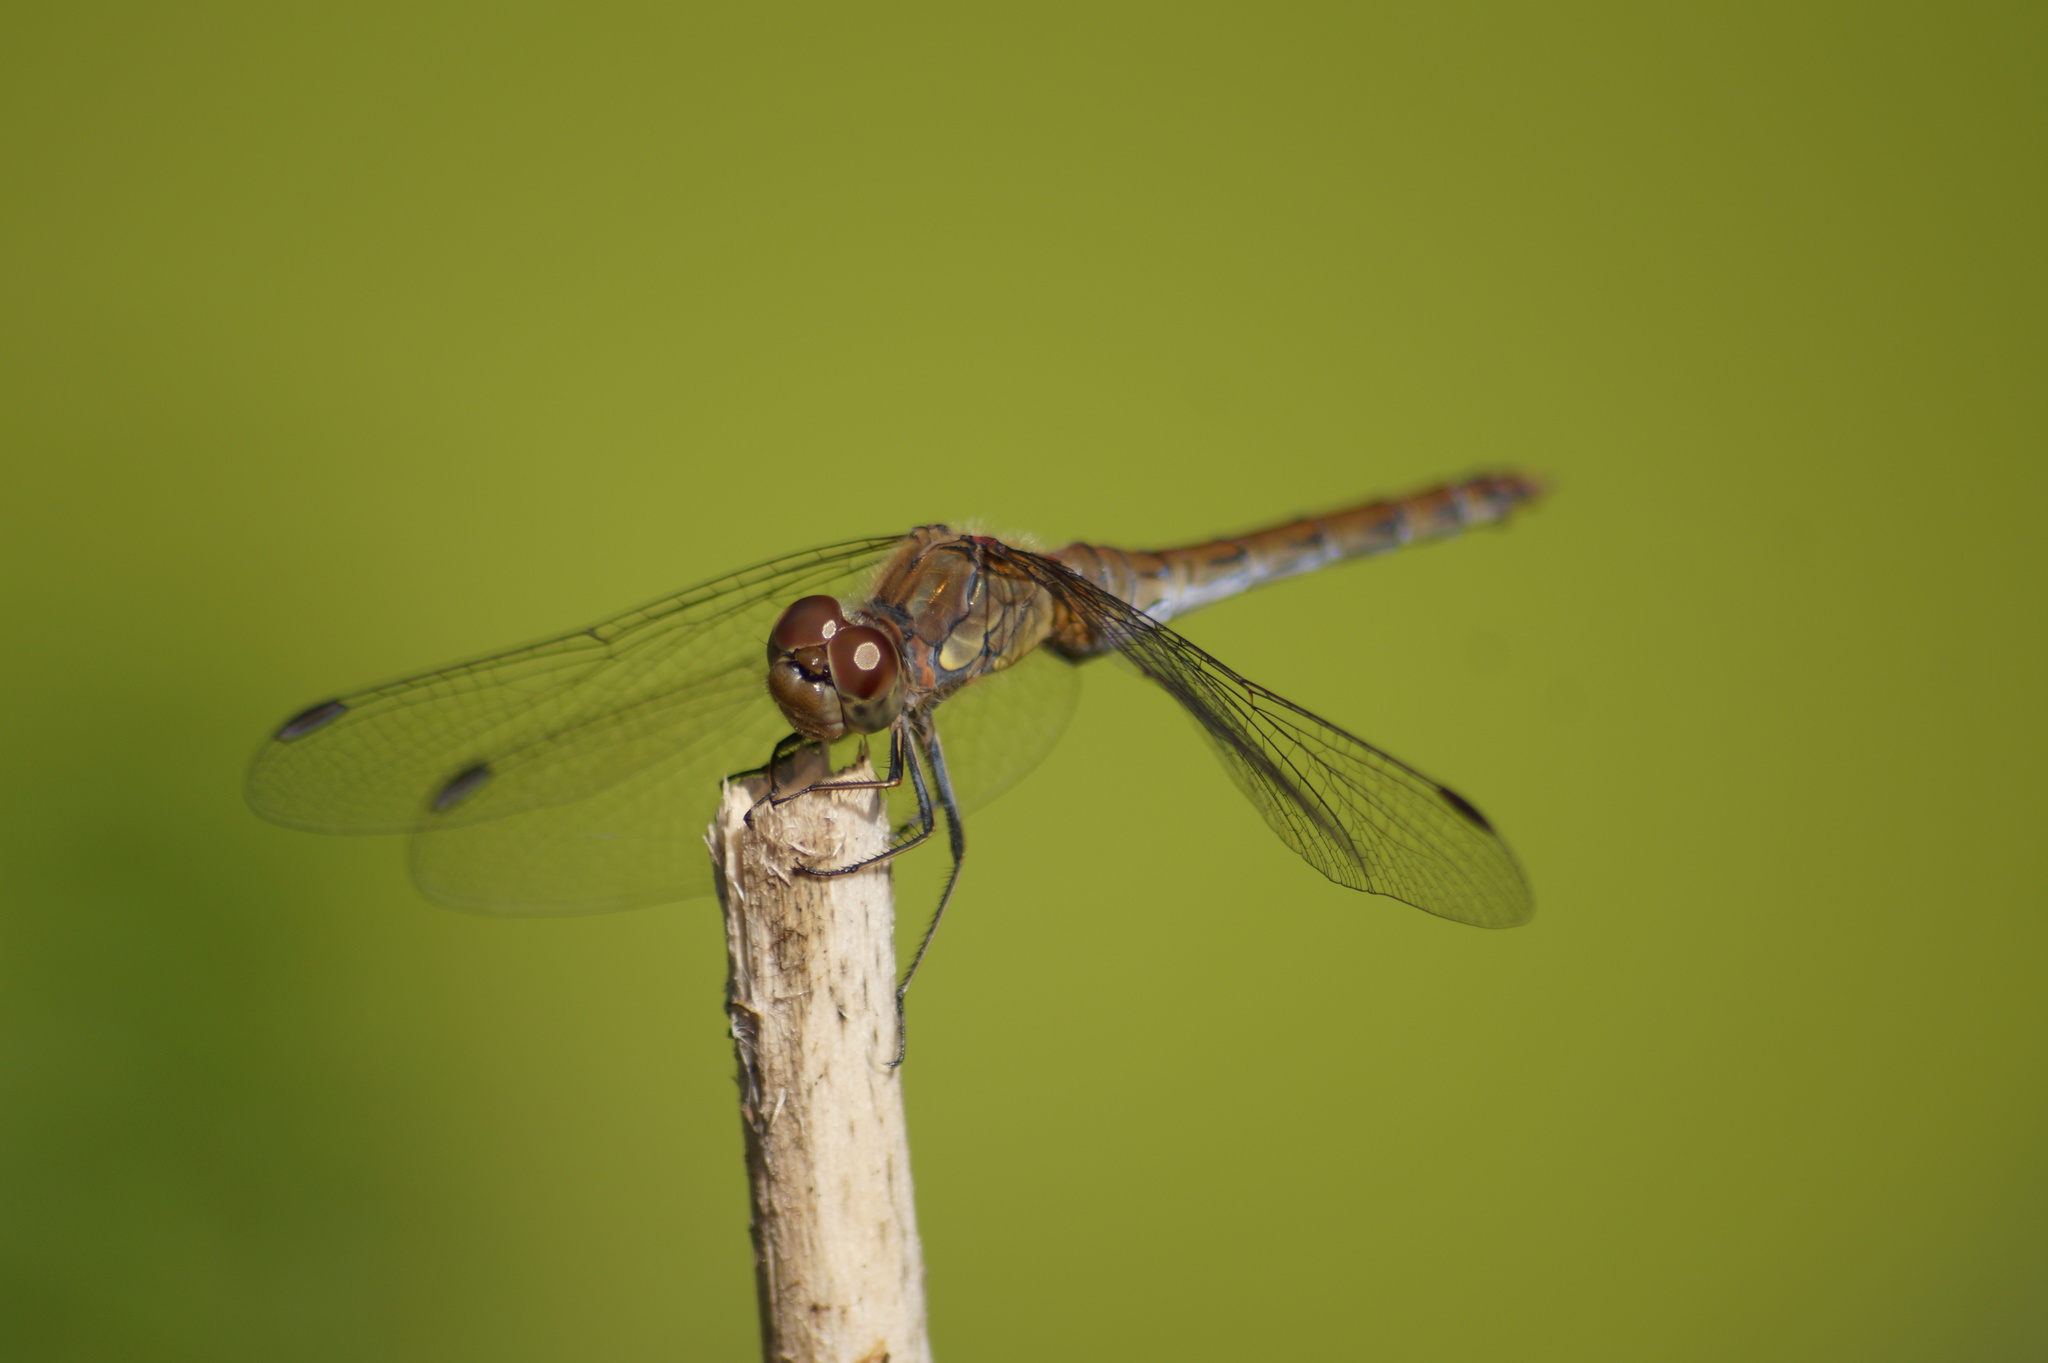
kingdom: Animalia
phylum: Arthropoda
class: Insecta
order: Odonata
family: Libellulidae
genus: Sympetrum
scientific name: Sympetrum striolatum
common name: Common darter
